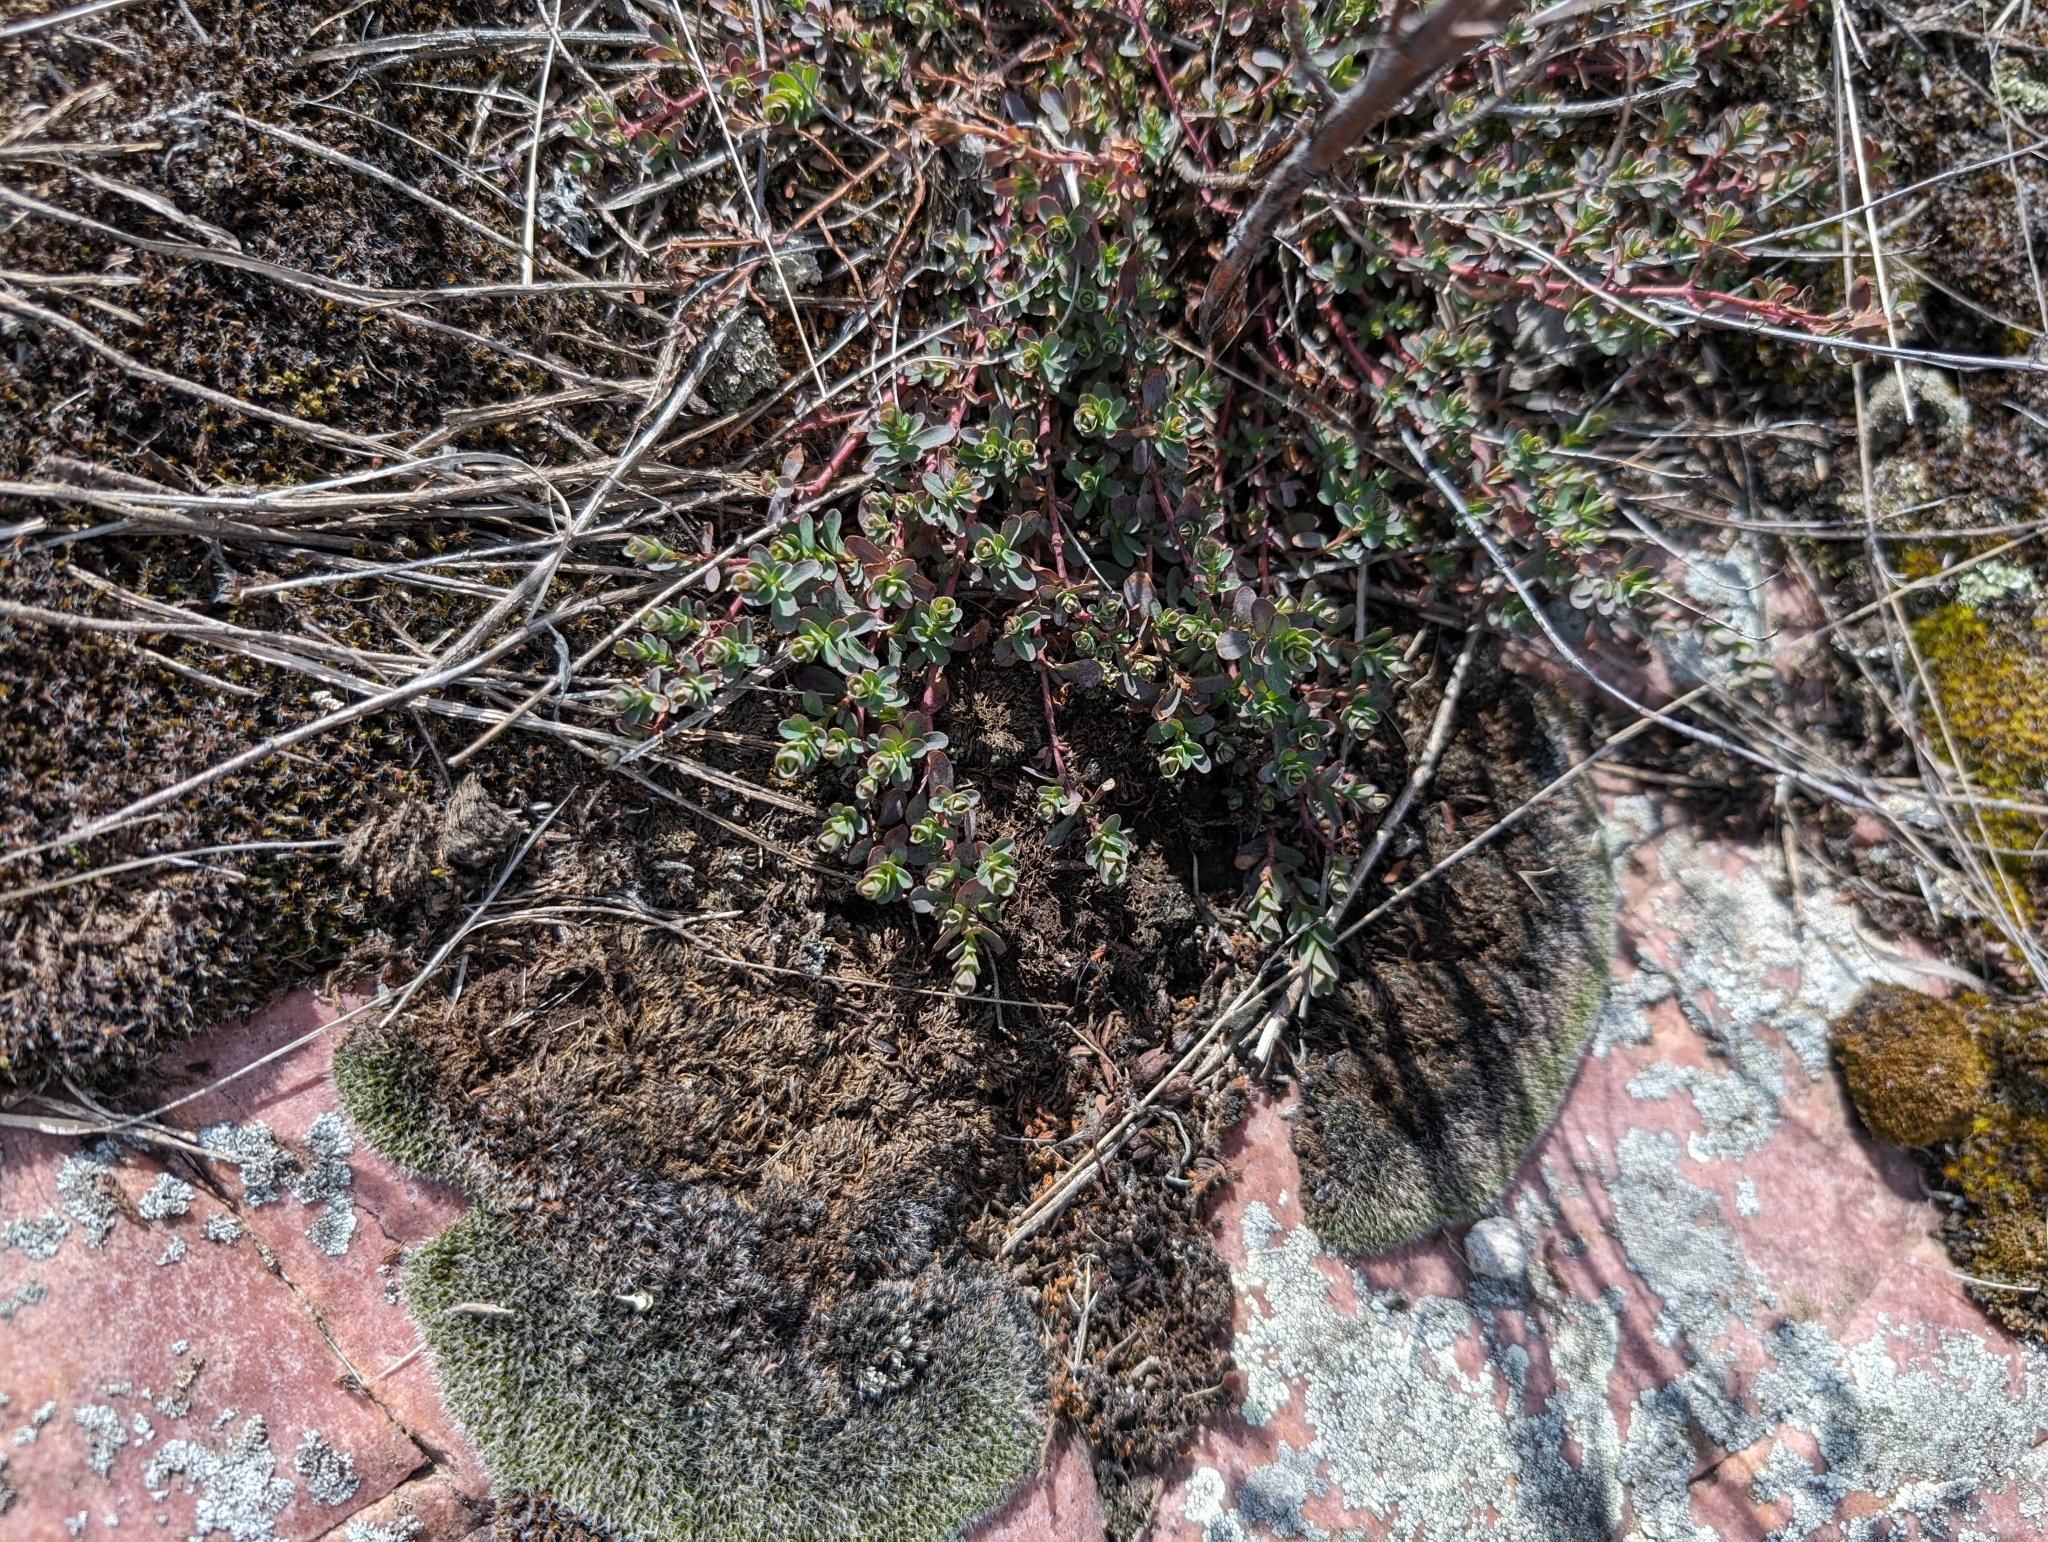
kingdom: Plantae
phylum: Tracheophyta
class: Magnoliopsida
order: Malpighiales
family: Hypericaceae
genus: Hypericum
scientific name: Hypericum perforatum
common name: Common st. johnswort
